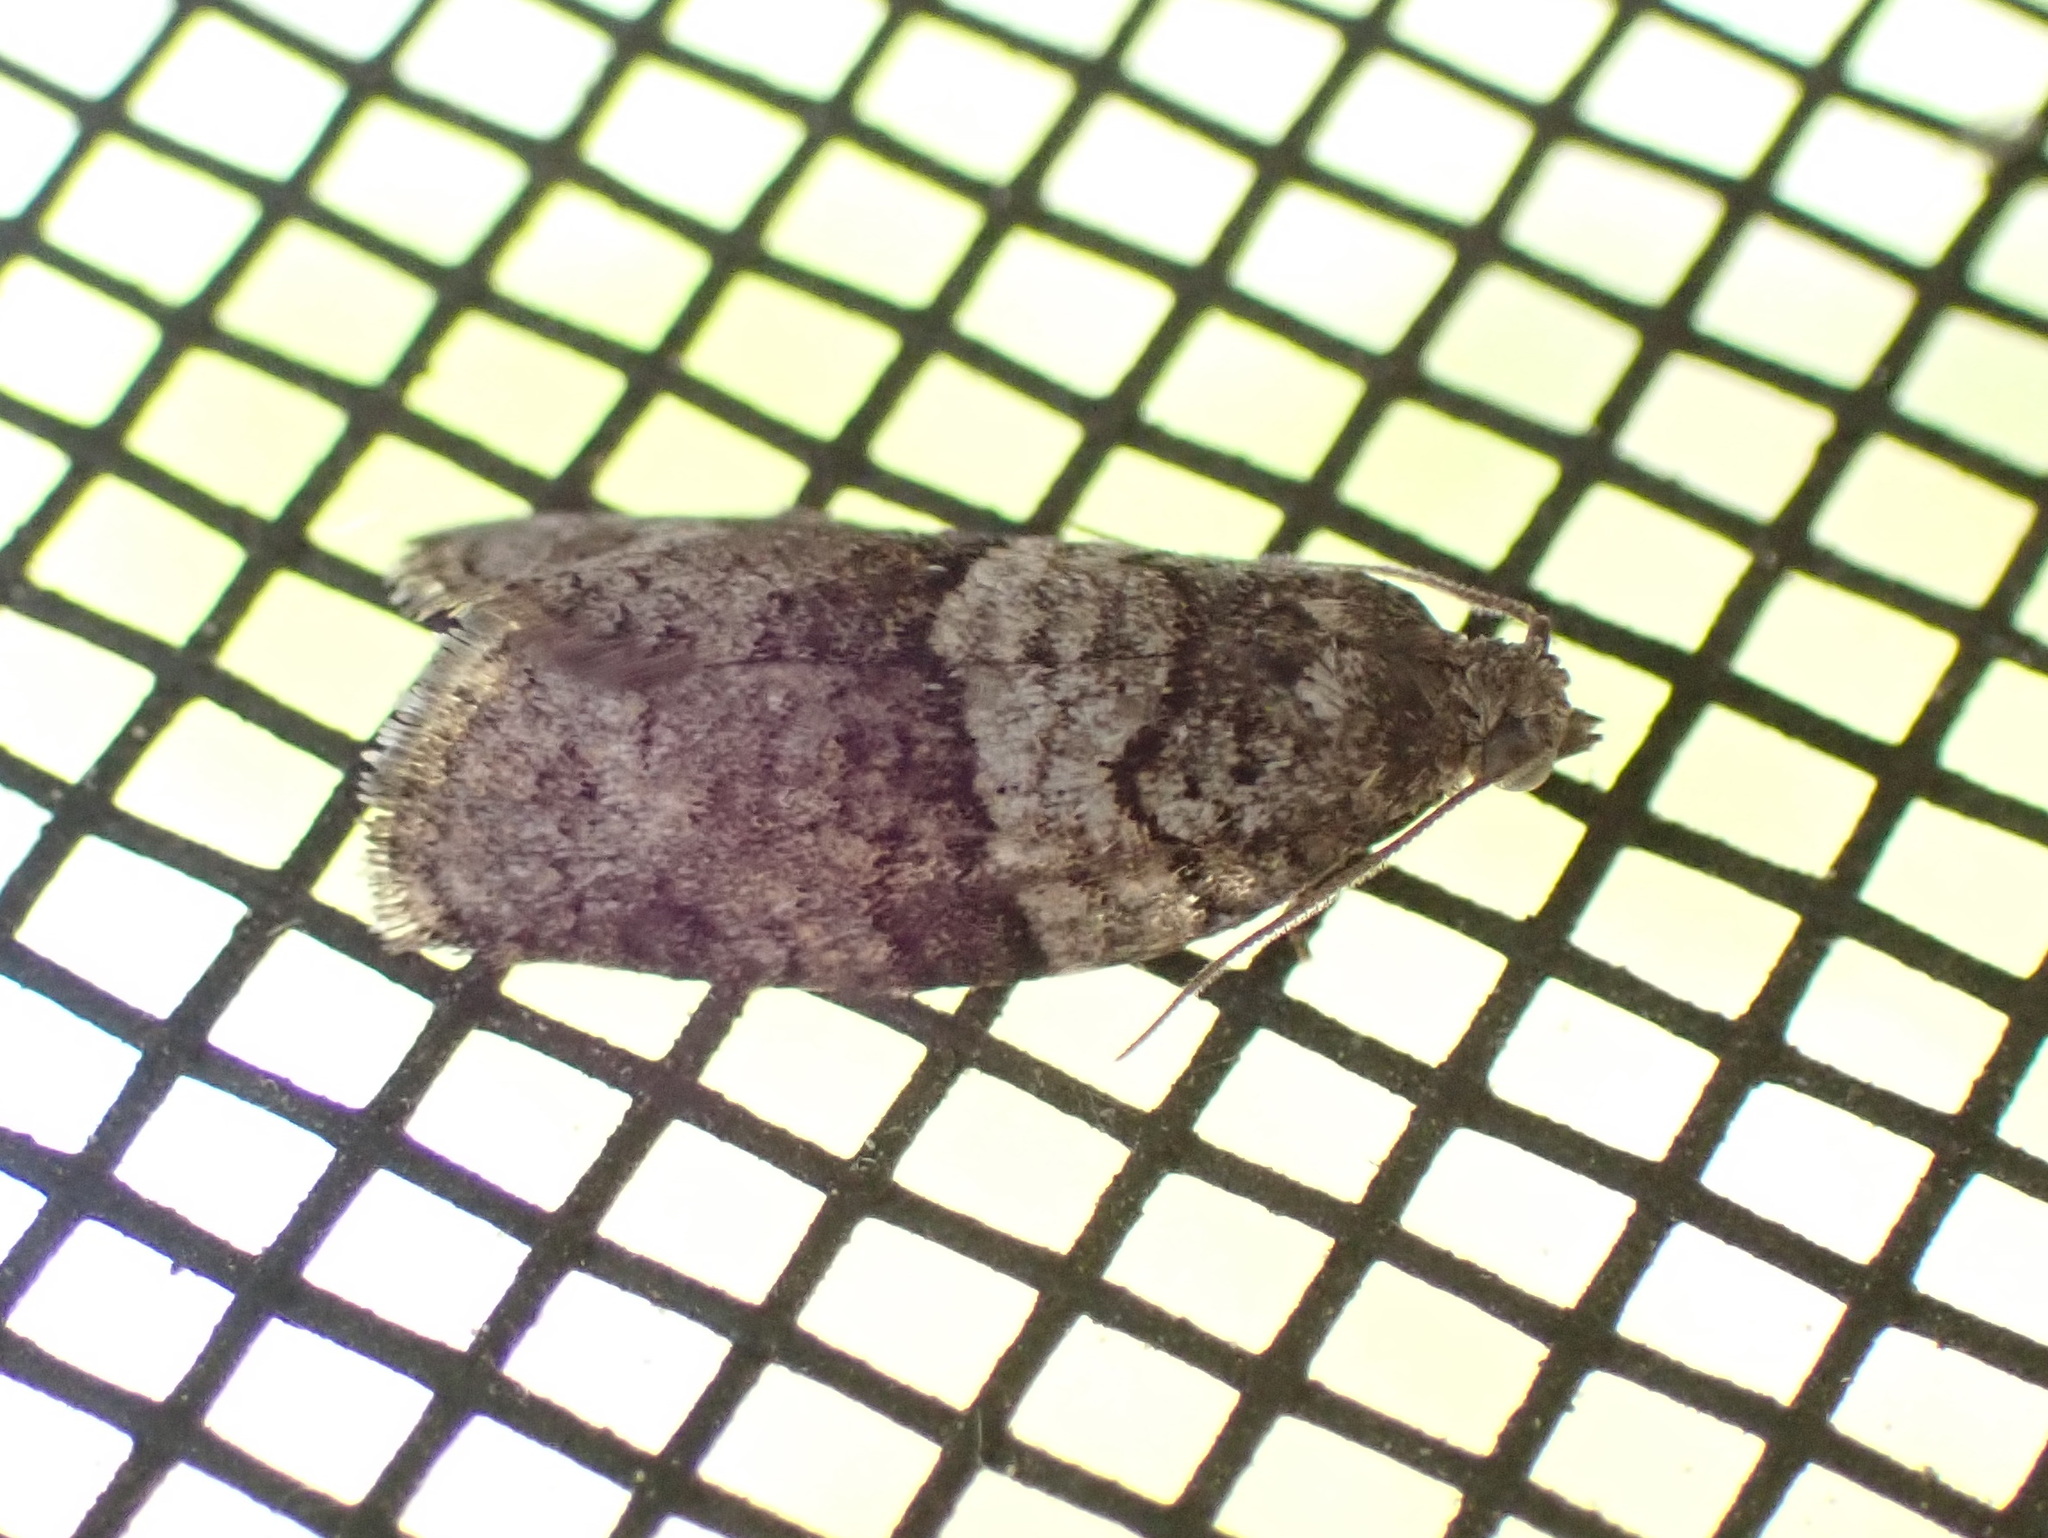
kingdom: Animalia
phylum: Arthropoda
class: Insecta
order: Lepidoptera
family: Tortricidae
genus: Syndemis
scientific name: Syndemis afflictana
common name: Gray leafroller moth
